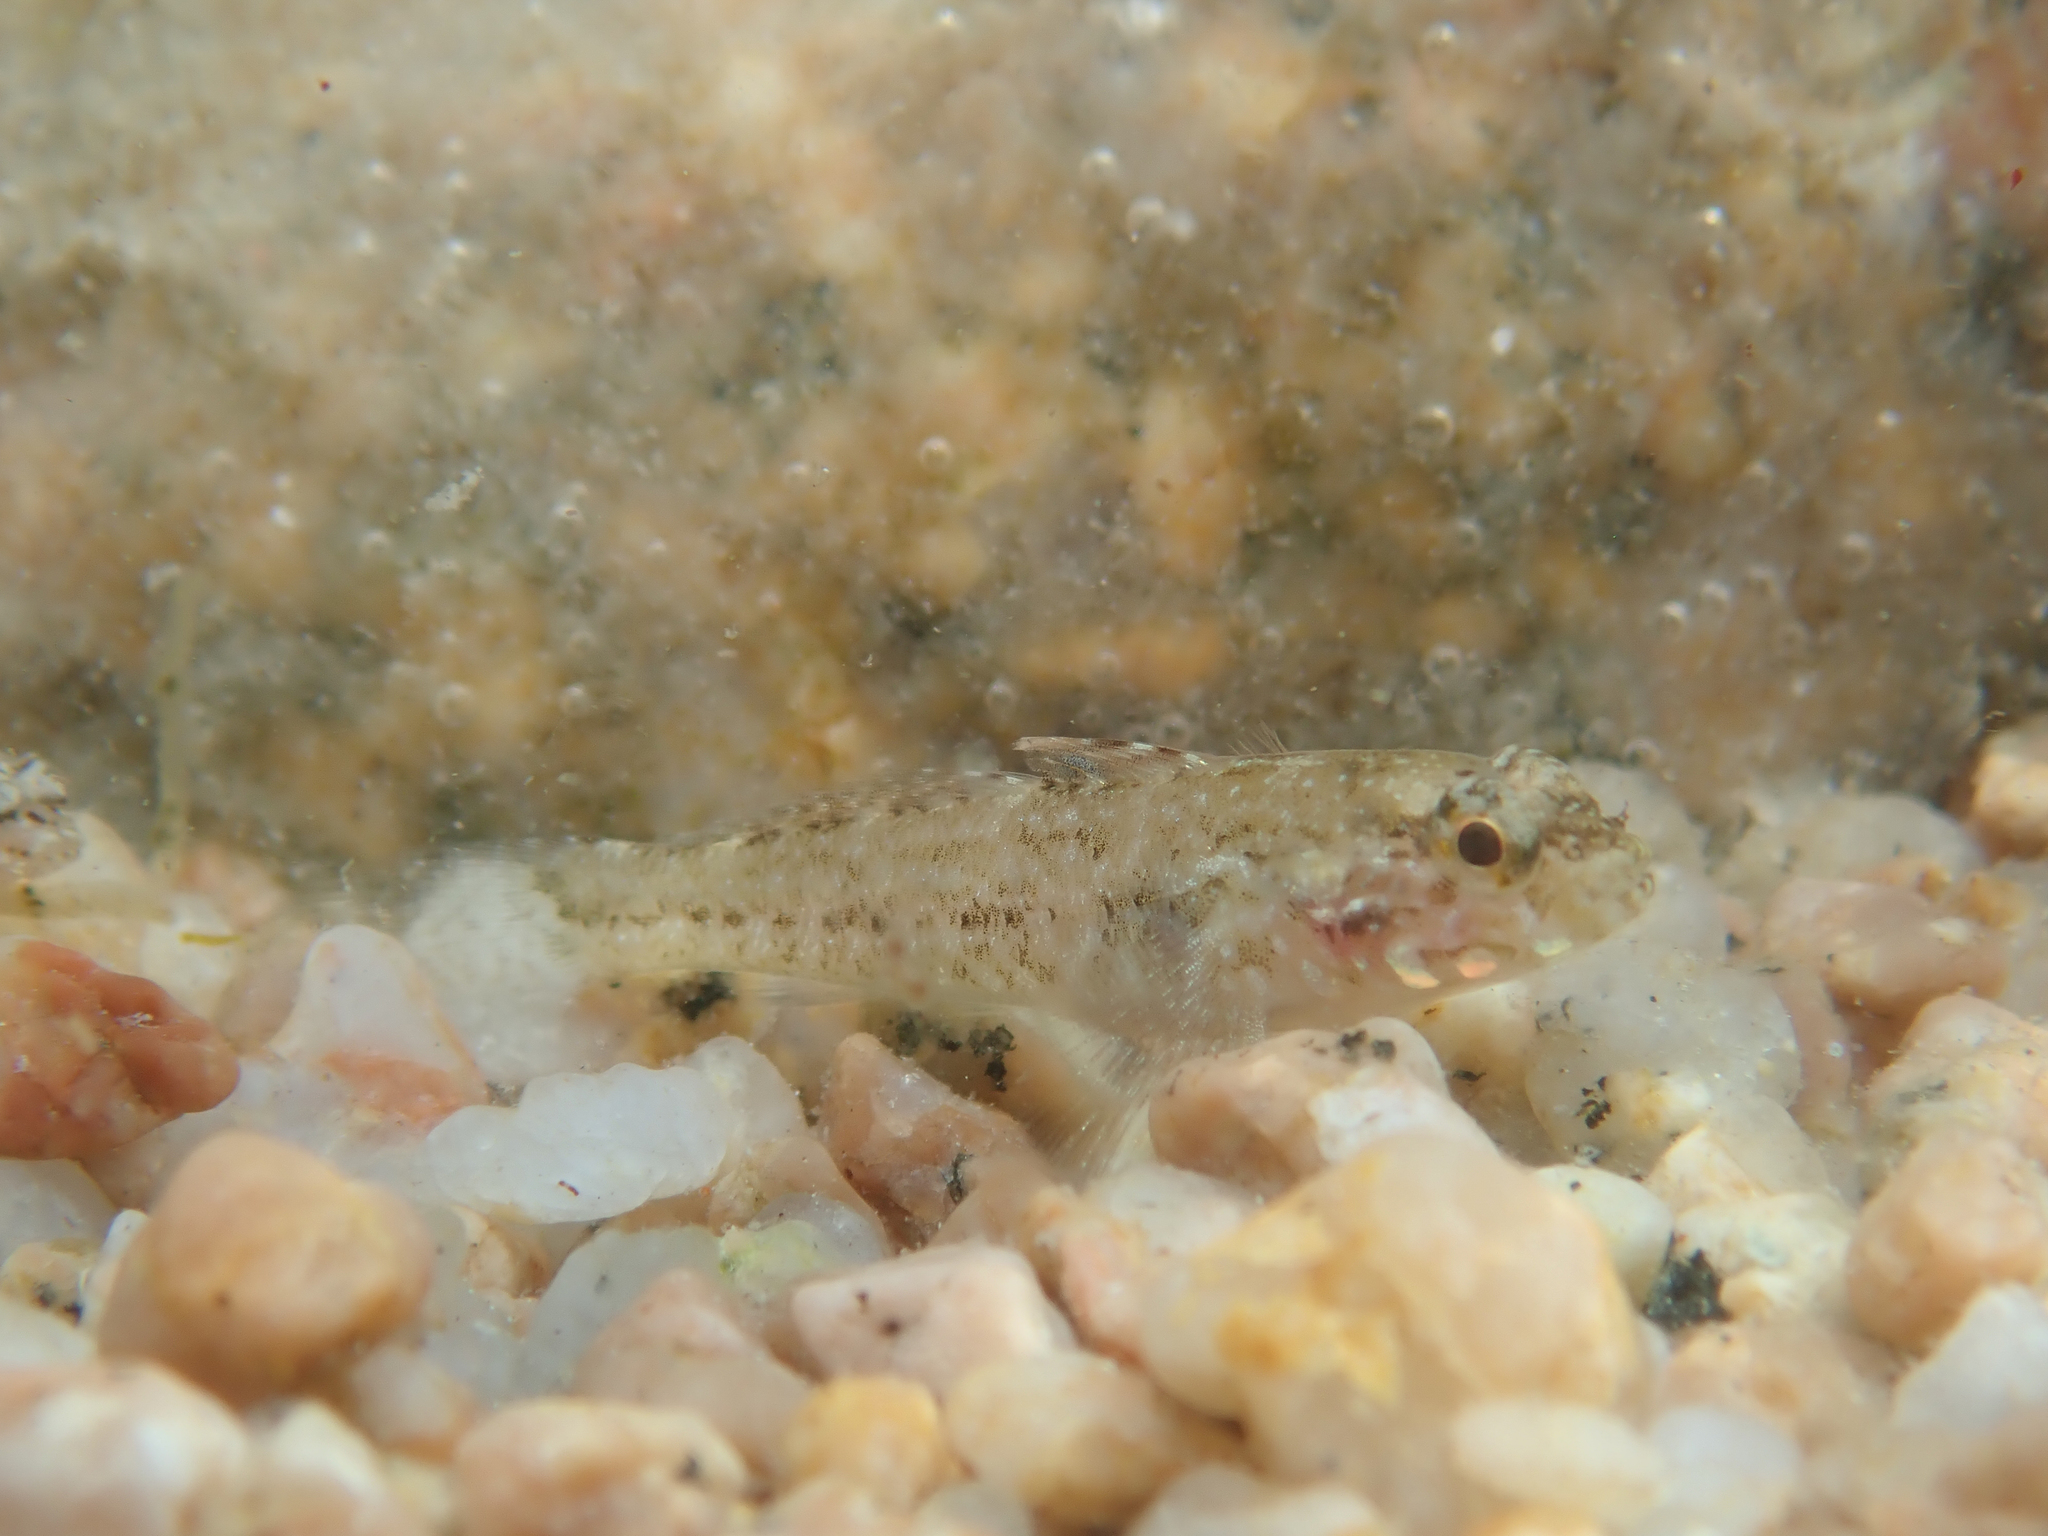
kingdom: Animalia
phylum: Chordata
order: Perciformes
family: Gobiidae
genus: Gobius
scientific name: Gobius paganellus
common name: Rock goby
